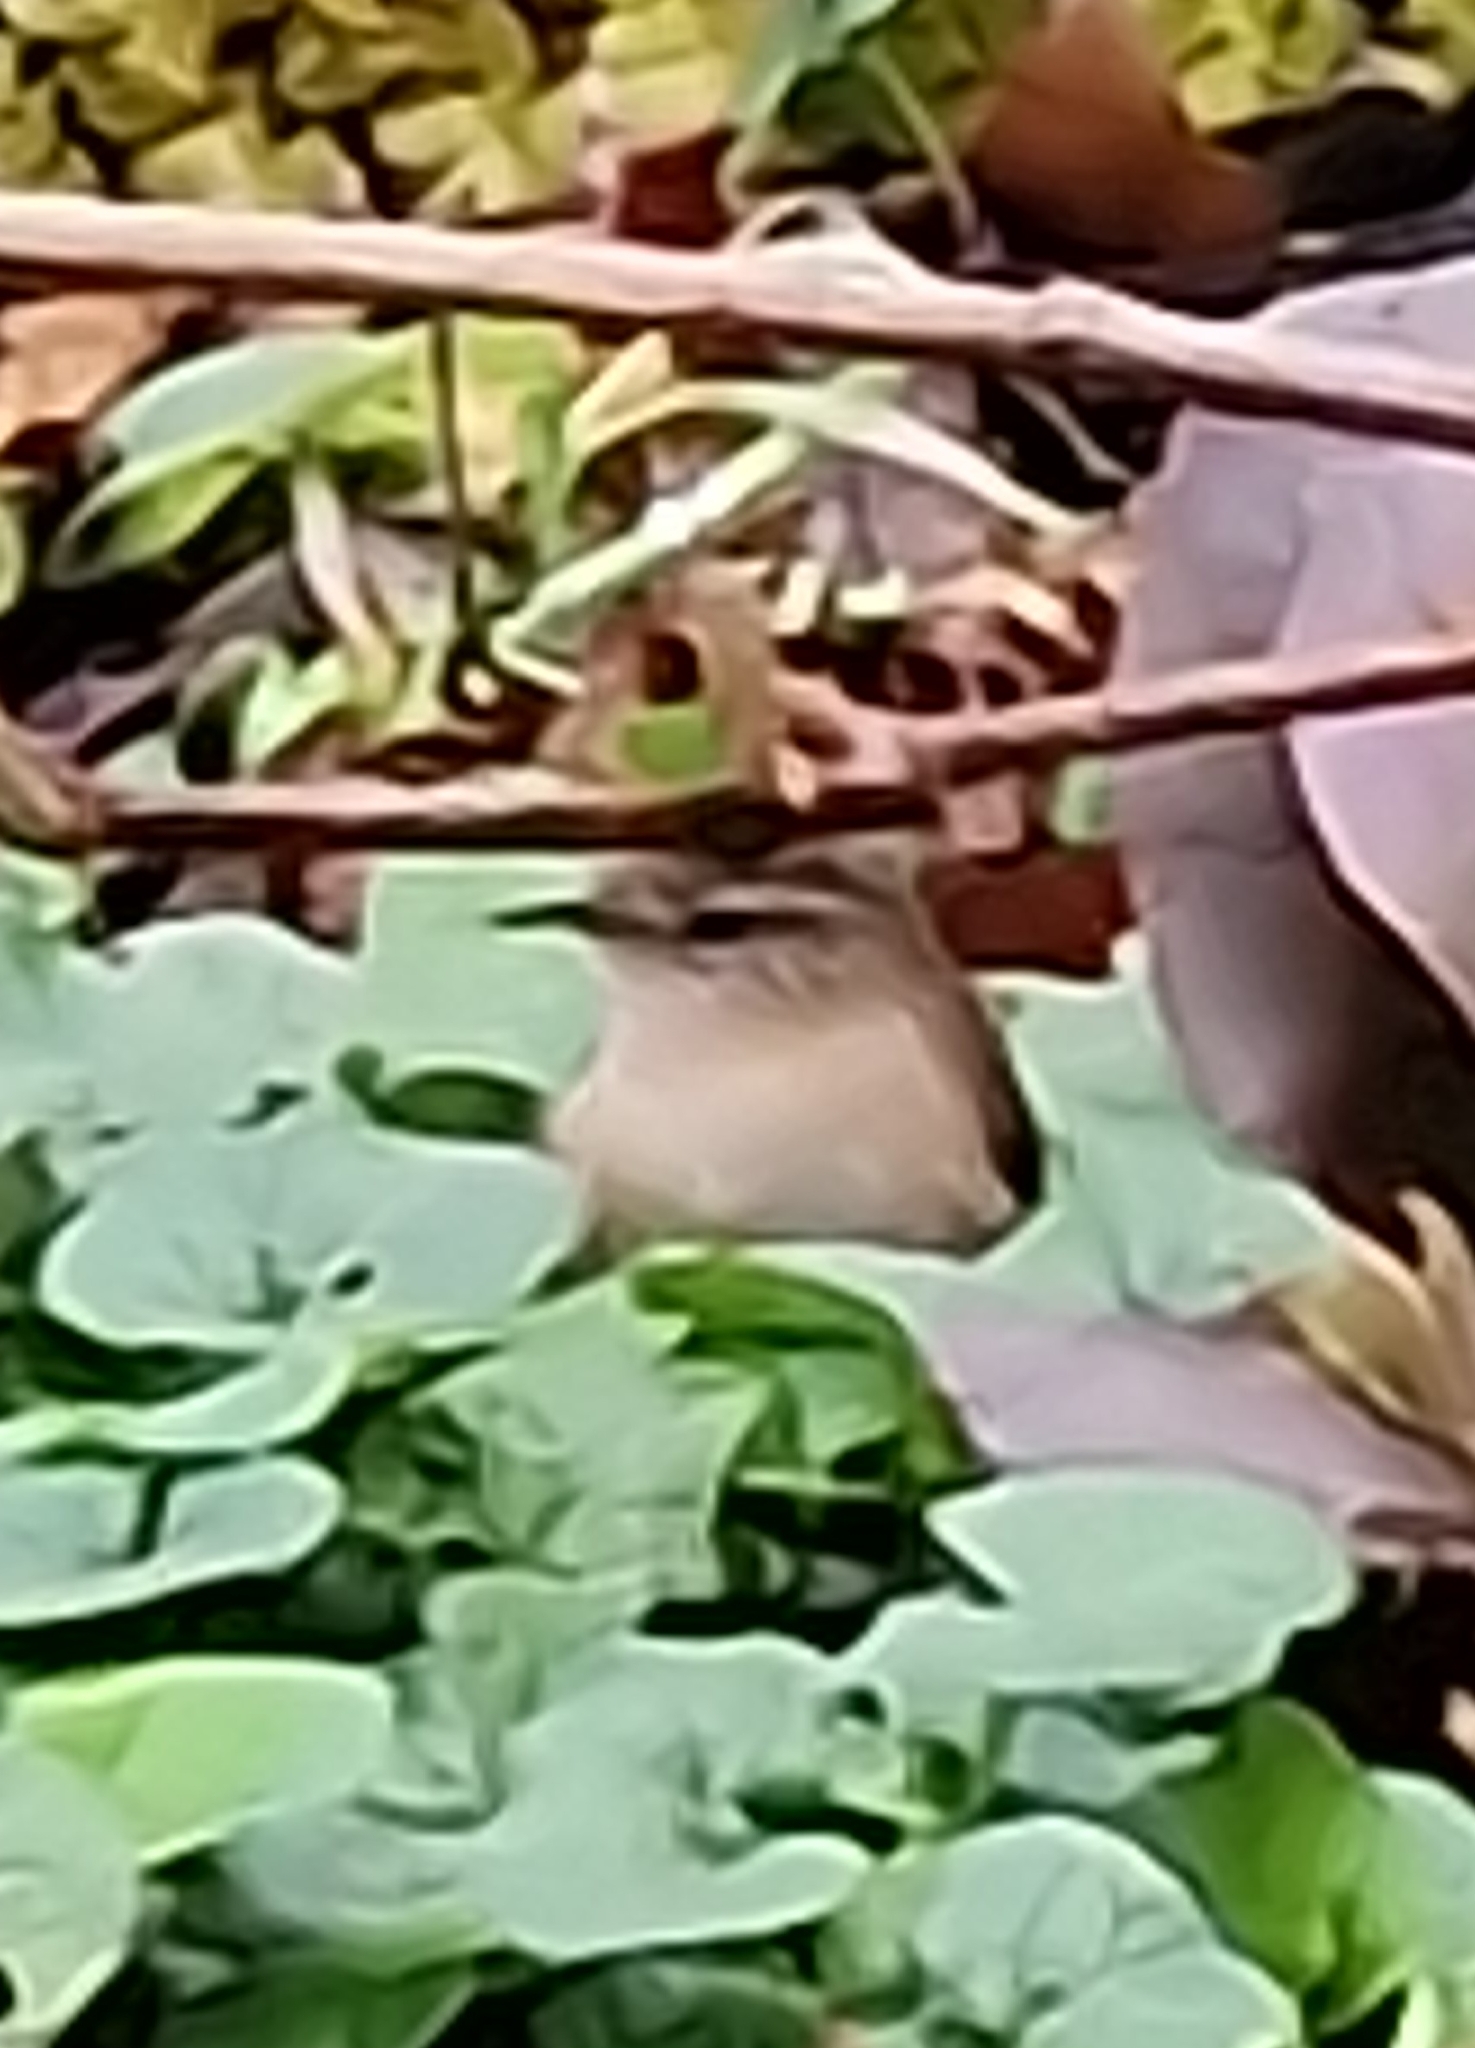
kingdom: Animalia
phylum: Chordata
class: Aves
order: Passeriformes
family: Troglodytidae
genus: Troglodytes
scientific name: Troglodytes troglodytes
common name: Eurasian wren
